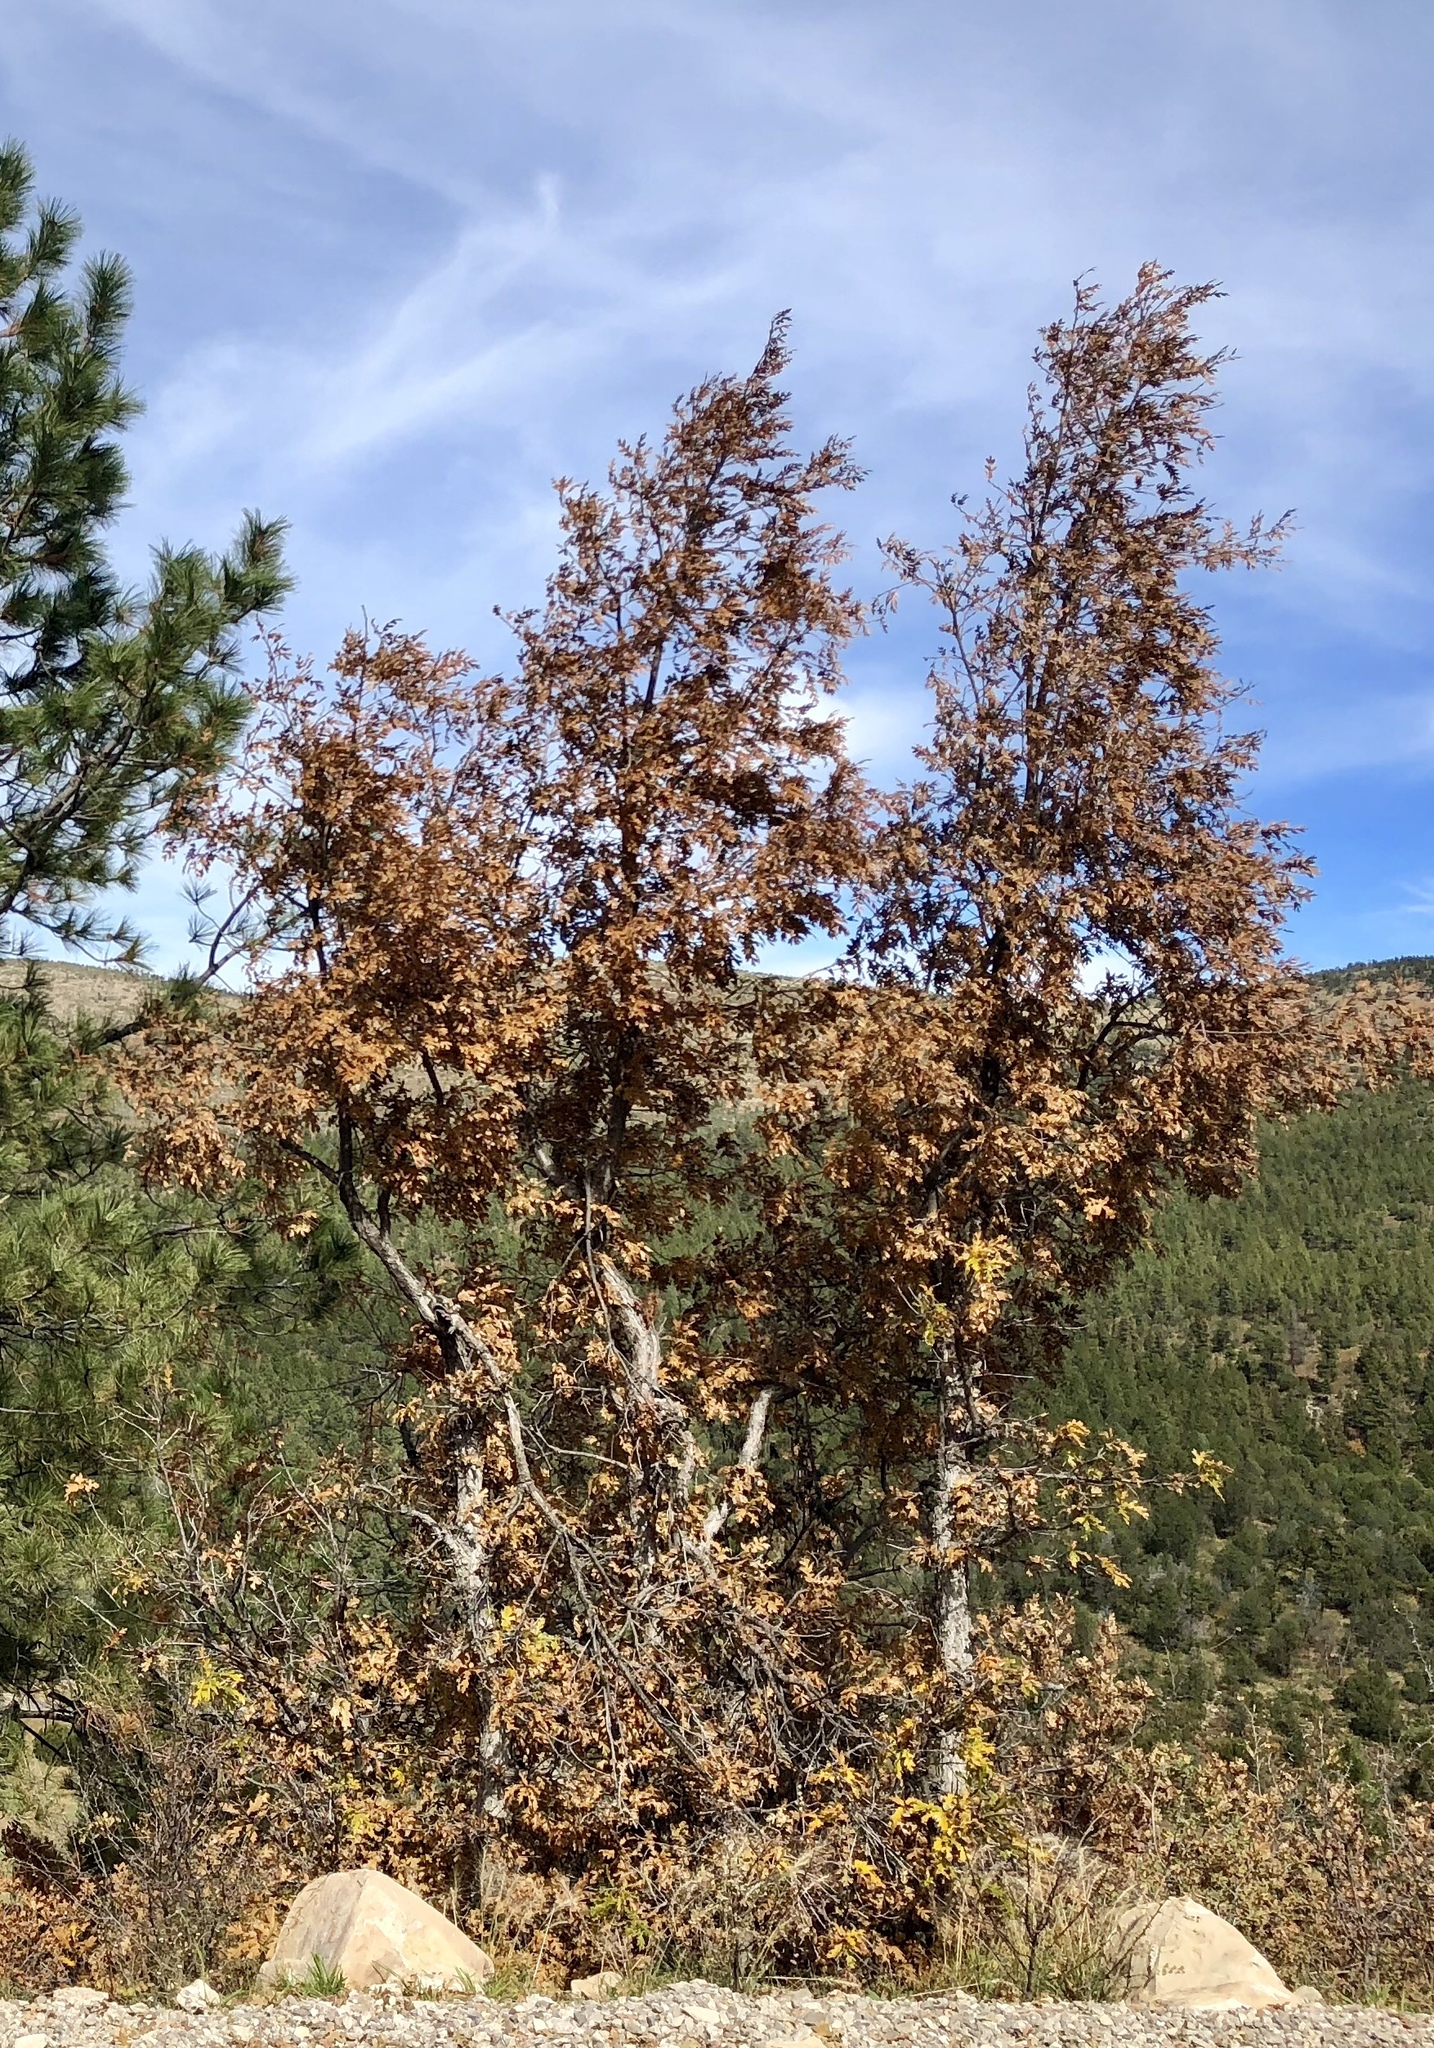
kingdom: Plantae
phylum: Tracheophyta
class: Magnoliopsida
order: Fagales
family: Fagaceae
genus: Quercus
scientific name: Quercus gambelii
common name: Gambel oak
